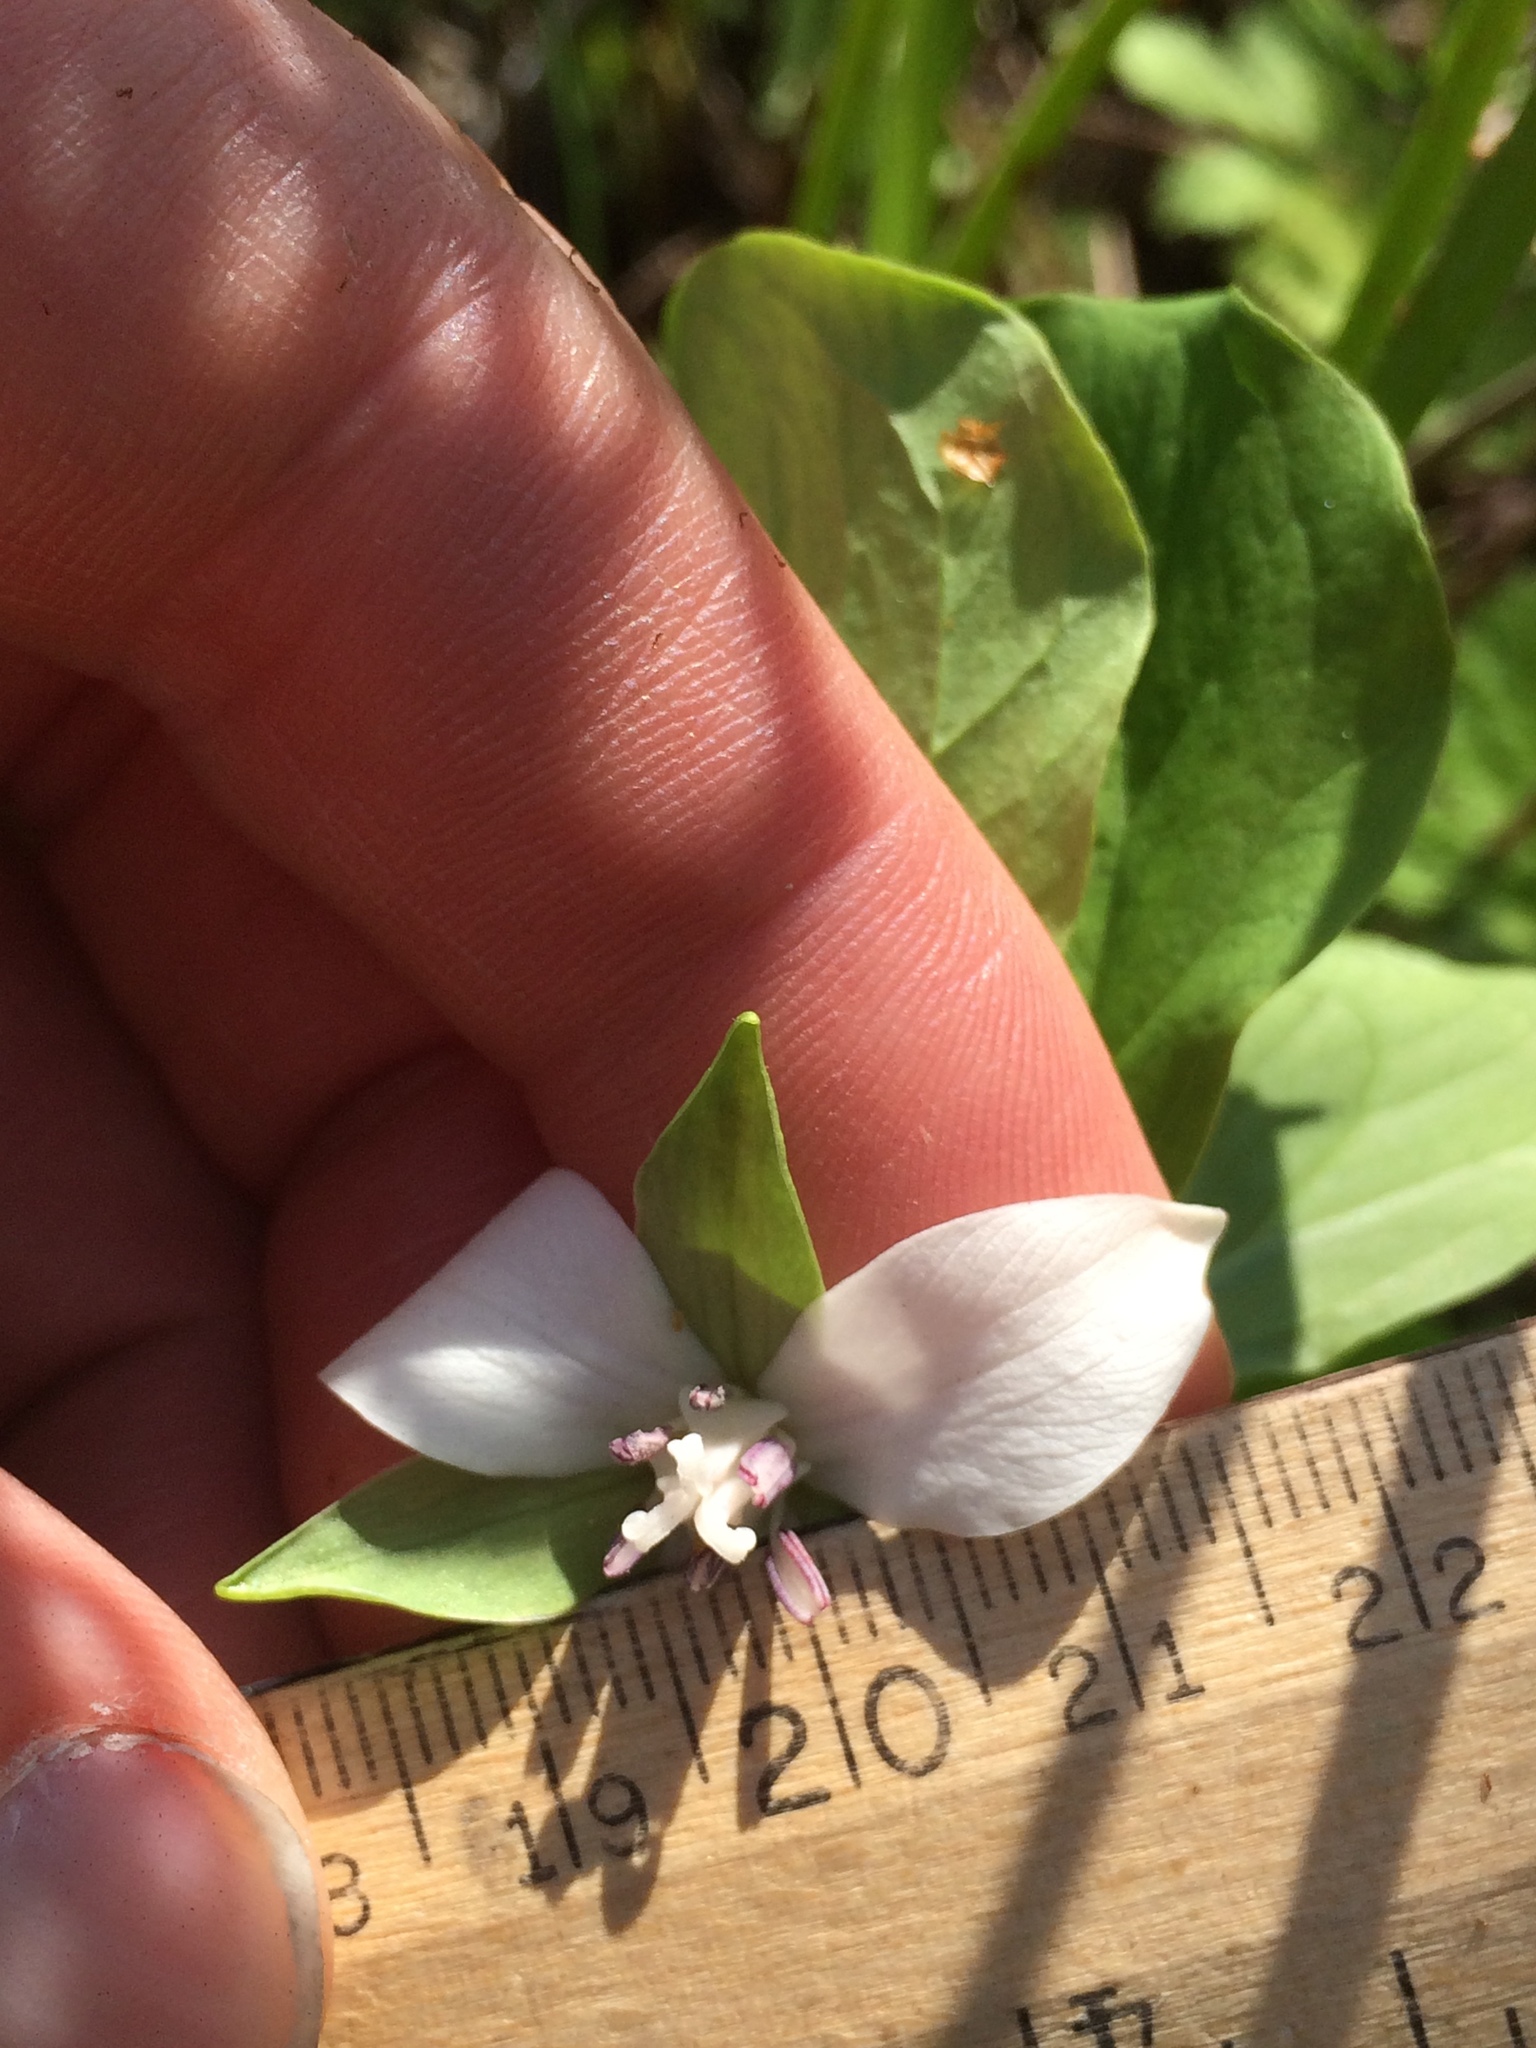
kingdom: Plantae
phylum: Tracheophyta
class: Liliopsida
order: Liliales
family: Melanthiaceae
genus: Trillium
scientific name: Trillium cernuum
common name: Nodding trillium
